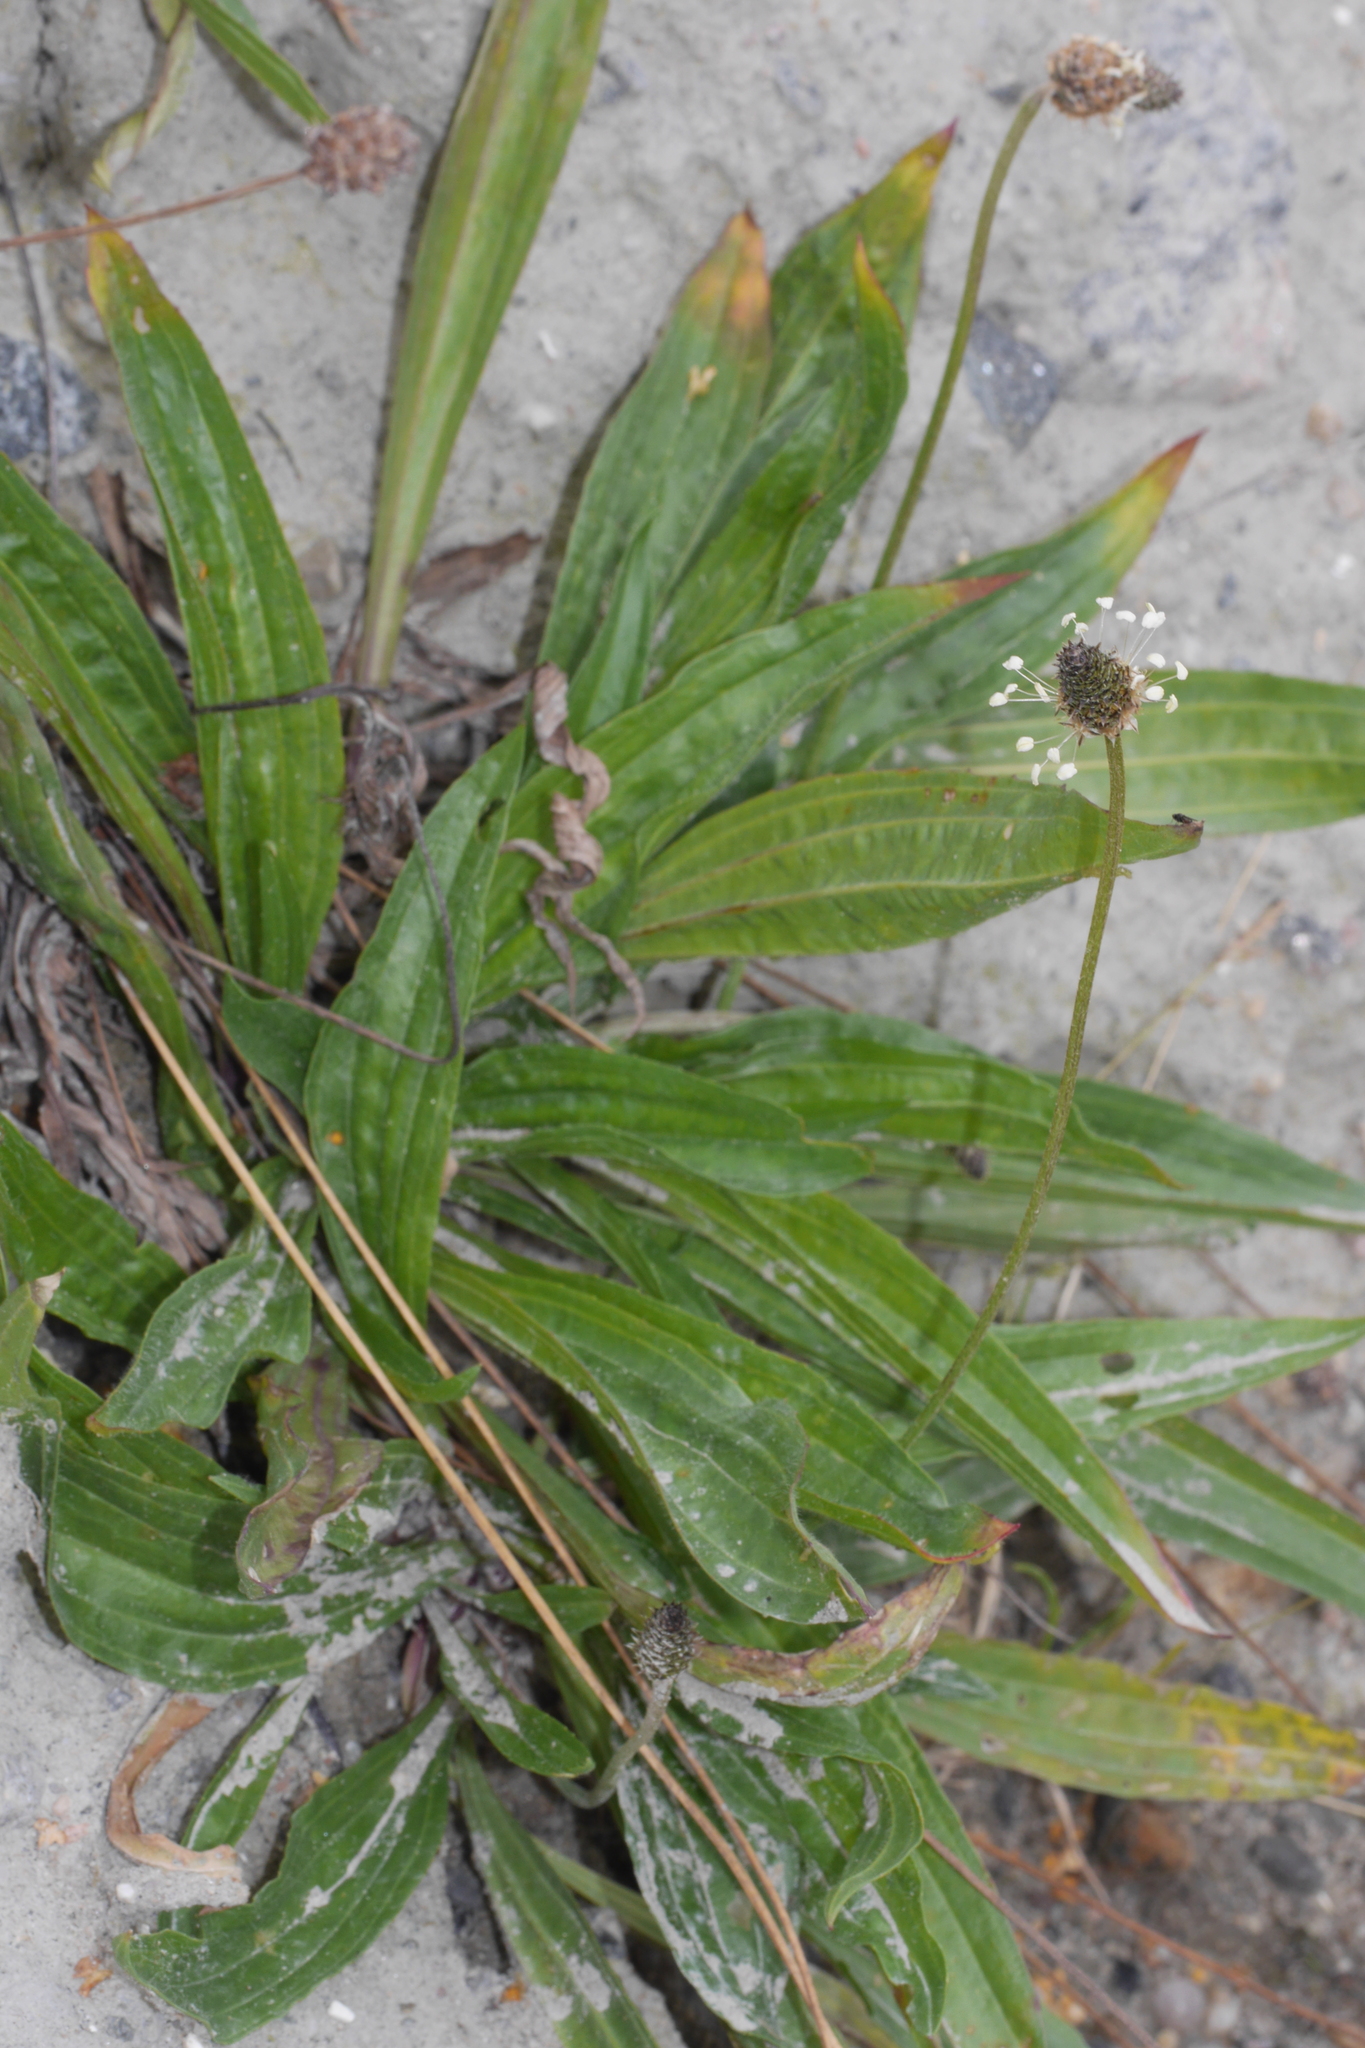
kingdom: Plantae
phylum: Tracheophyta
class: Magnoliopsida
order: Lamiales
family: Plantaginaceae
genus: Plantago
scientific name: Plantago lanceolata
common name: Ribwort plantain
